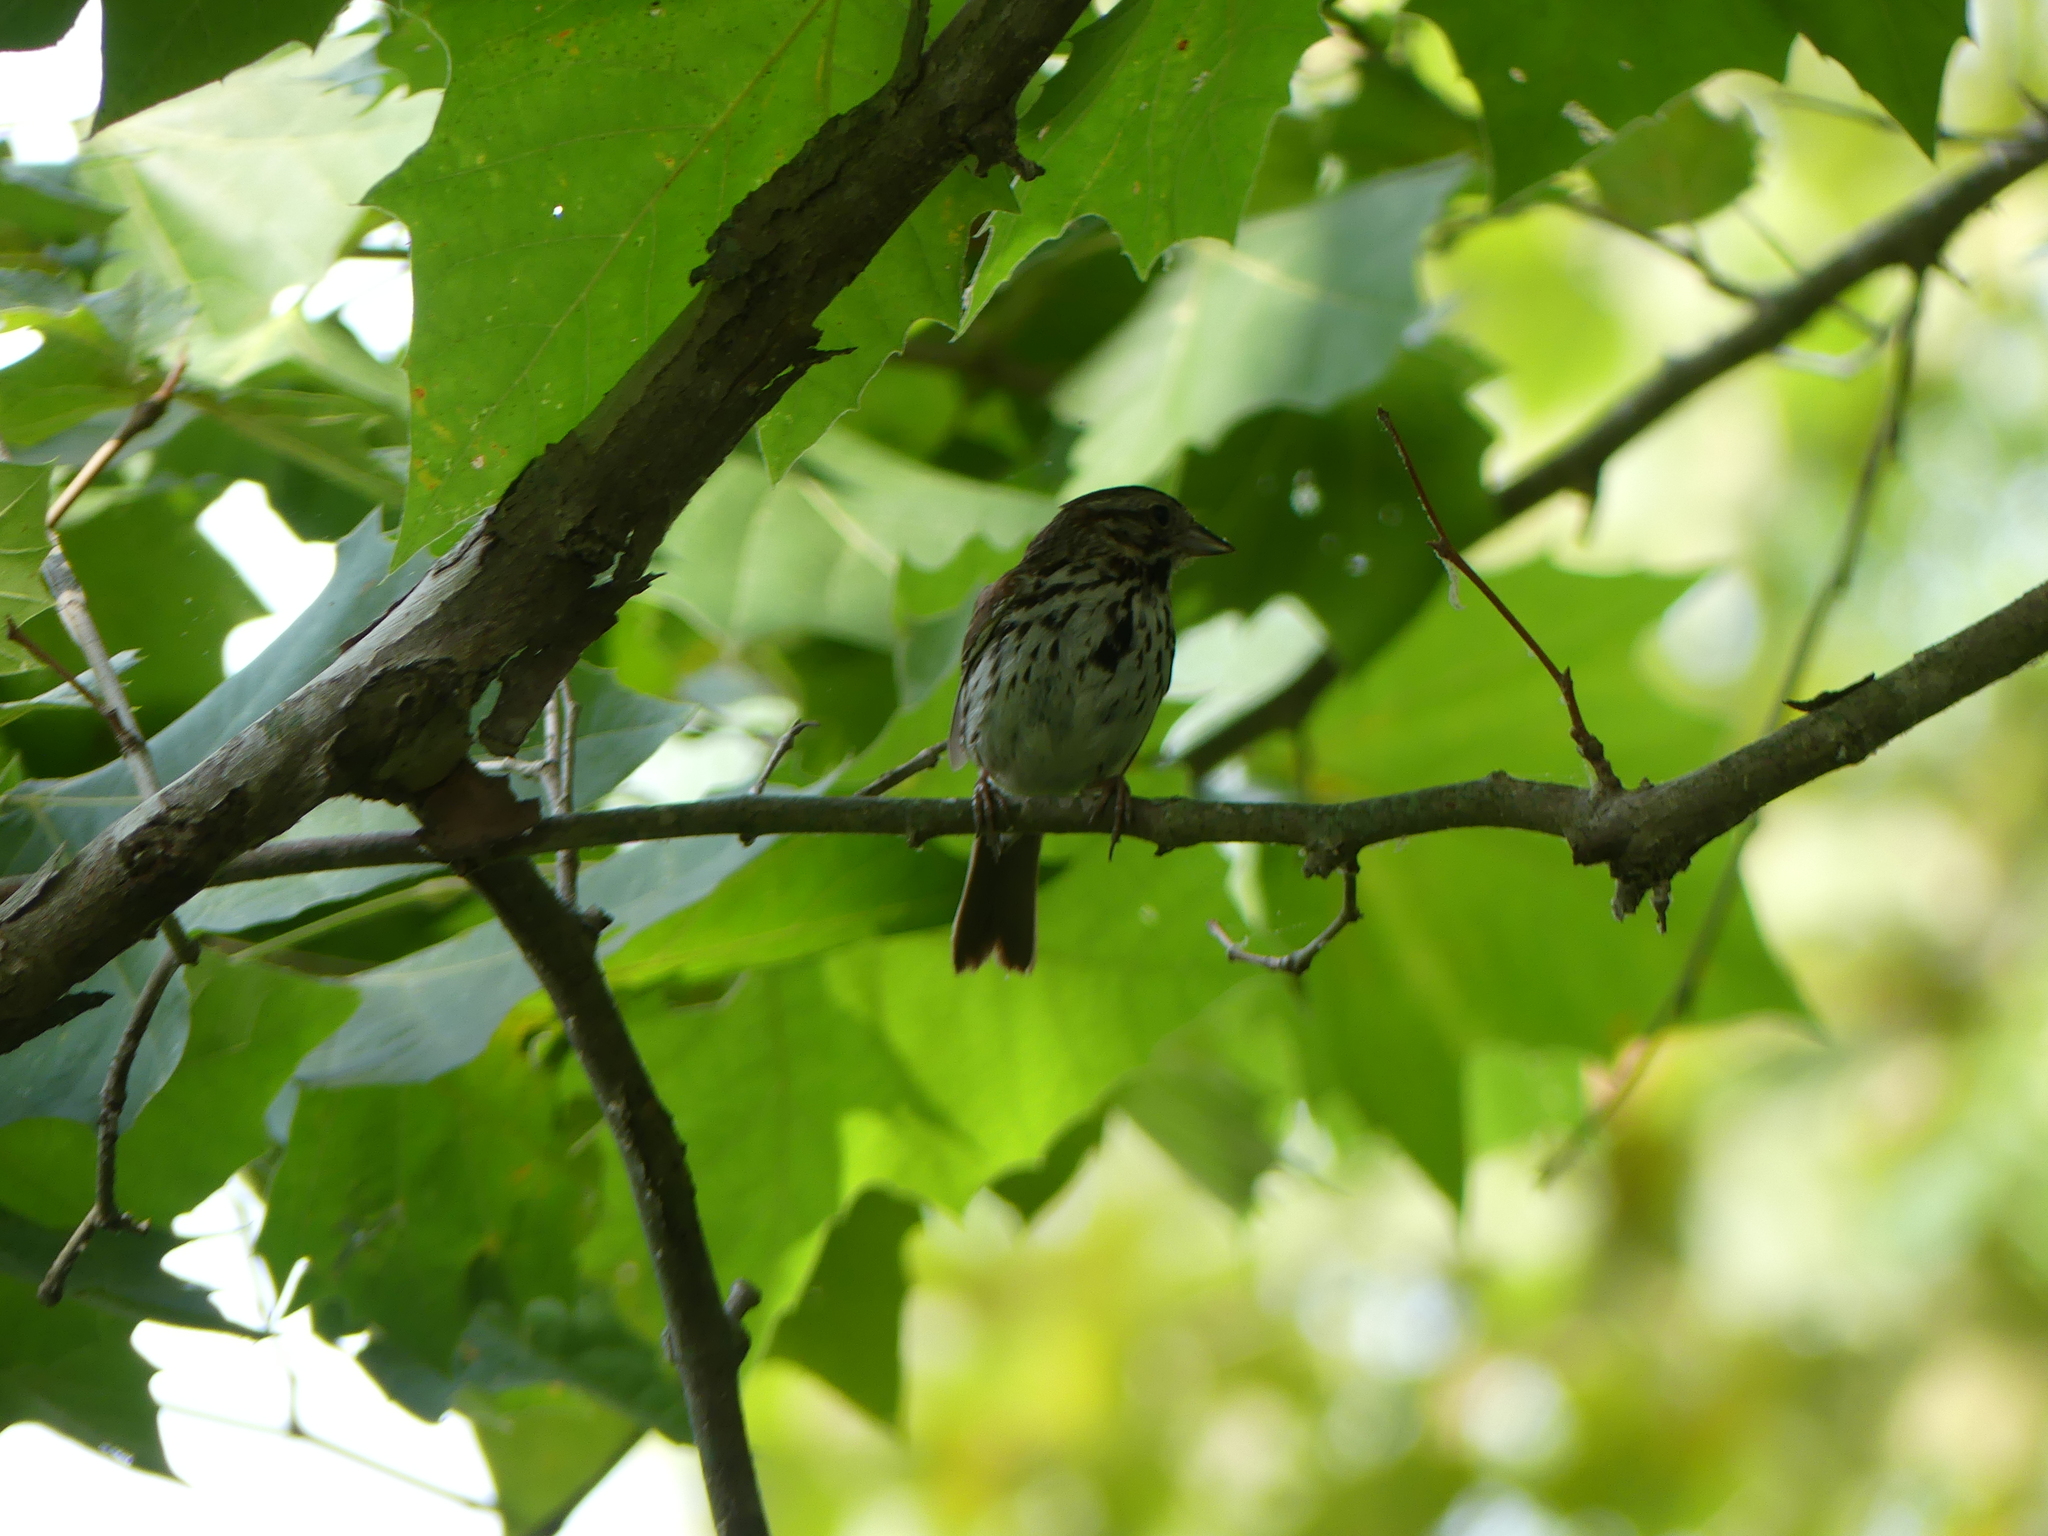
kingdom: Animalia
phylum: Chordata
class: Aves
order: Passeriformes
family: Passerellidae
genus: Melospiza
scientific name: Melospiza melodia
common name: Song sparrow
